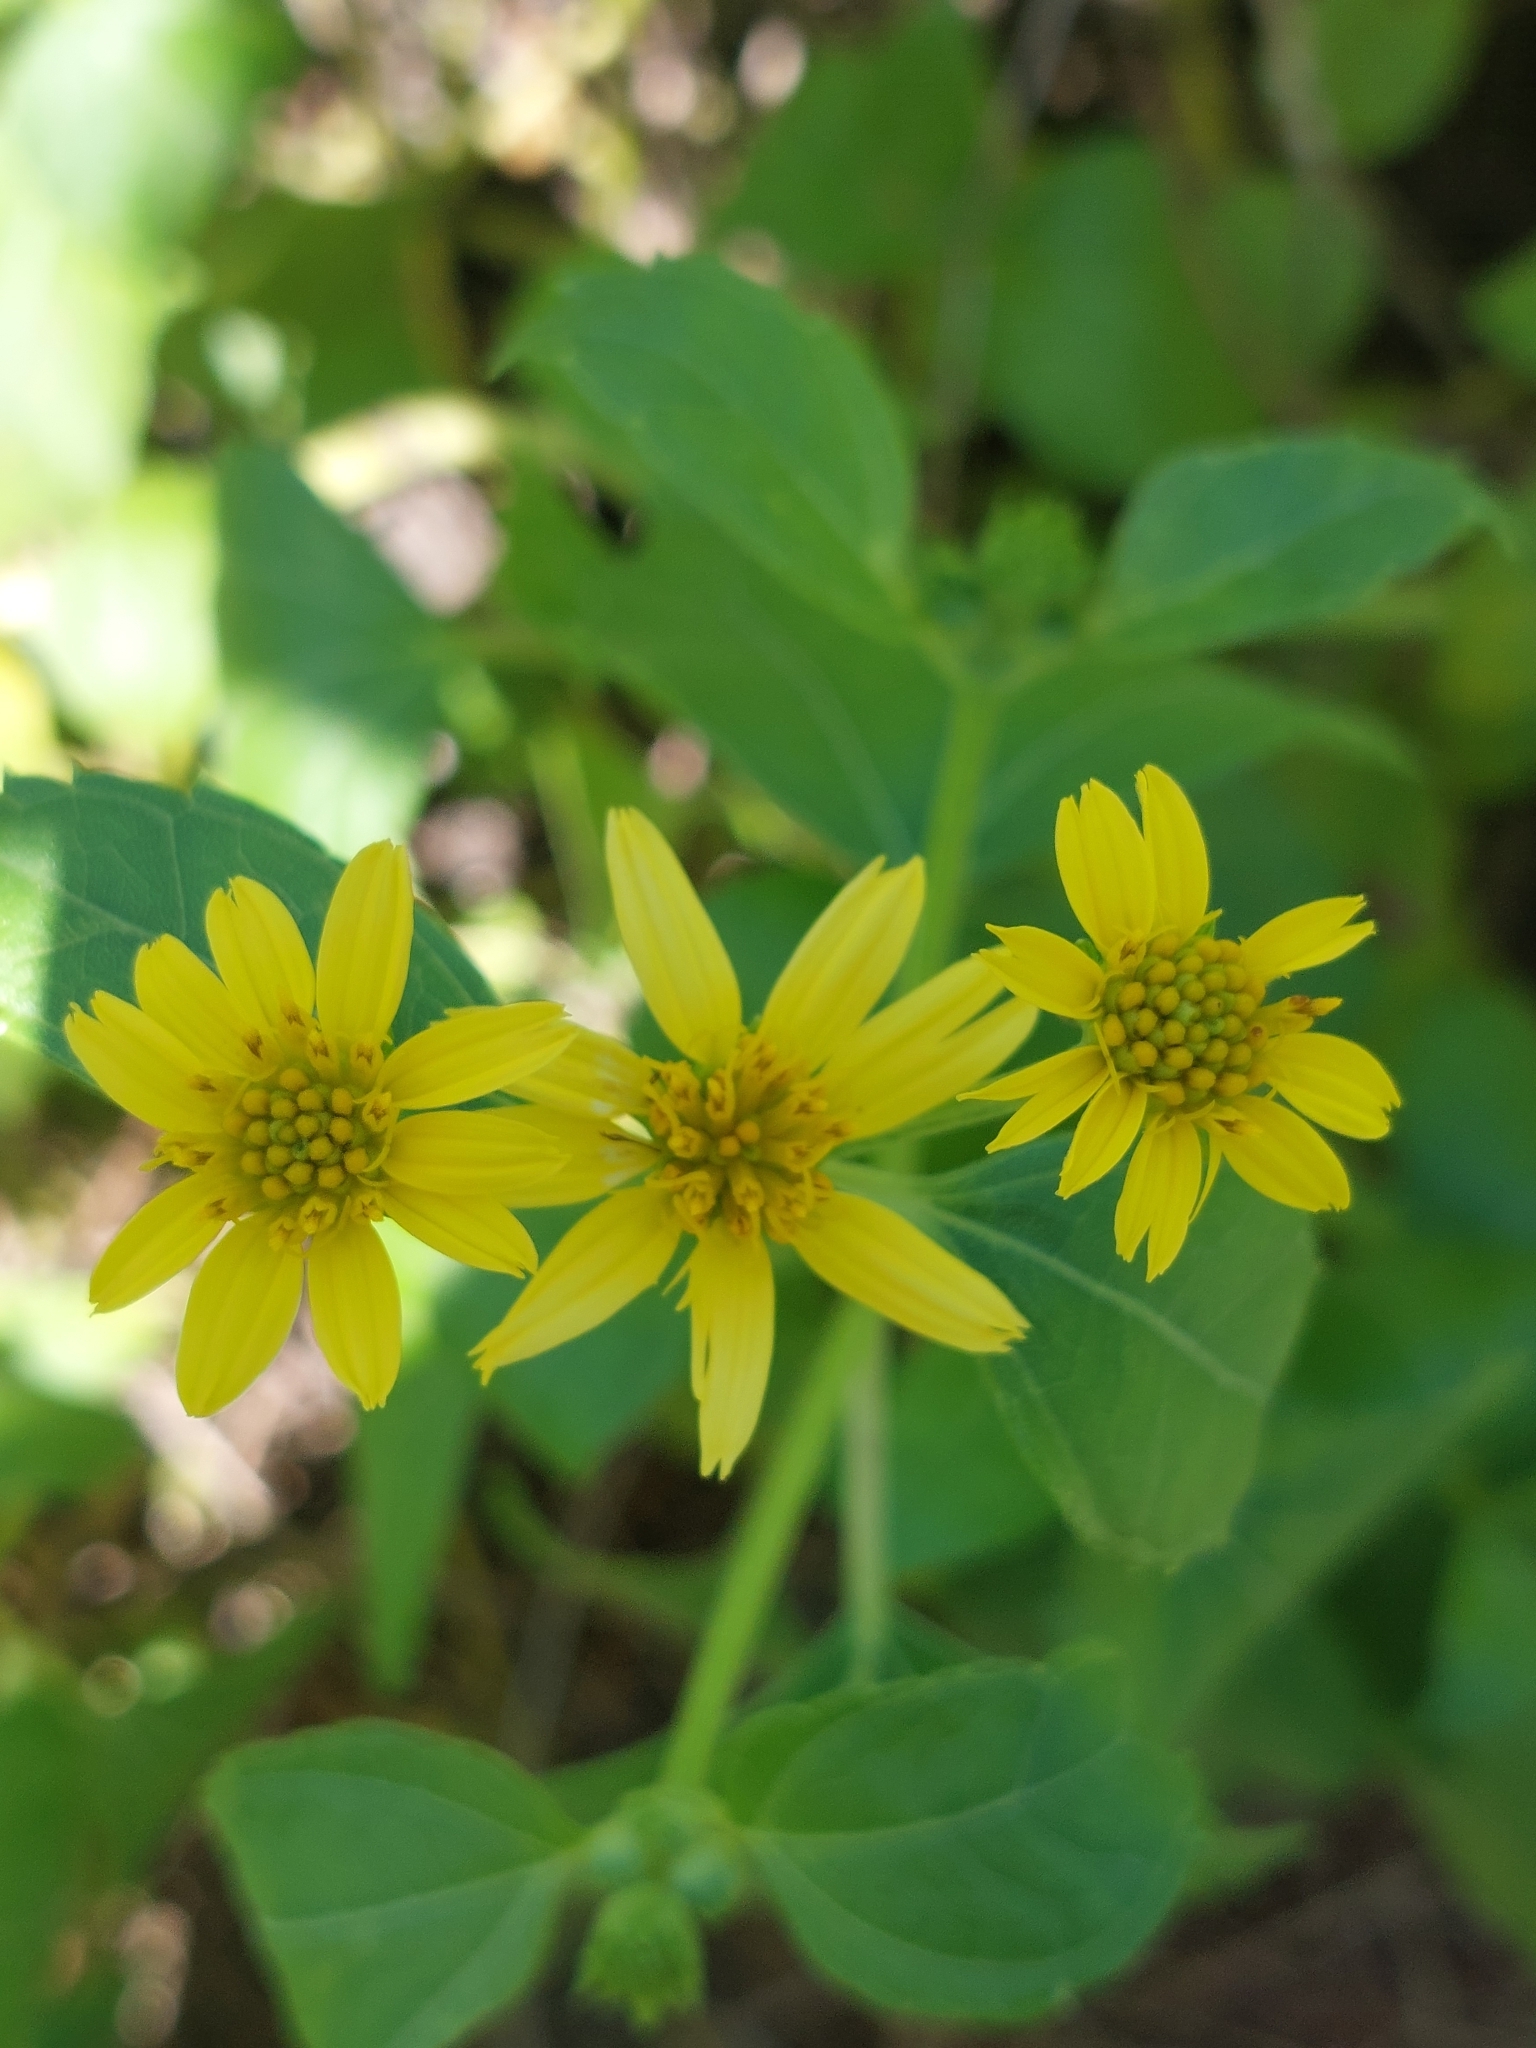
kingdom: Plantae
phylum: Tracheophyta
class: Magnoliopsida
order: Asterales
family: Asteraceae
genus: Wollastonia
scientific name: Wollastonia biflora
